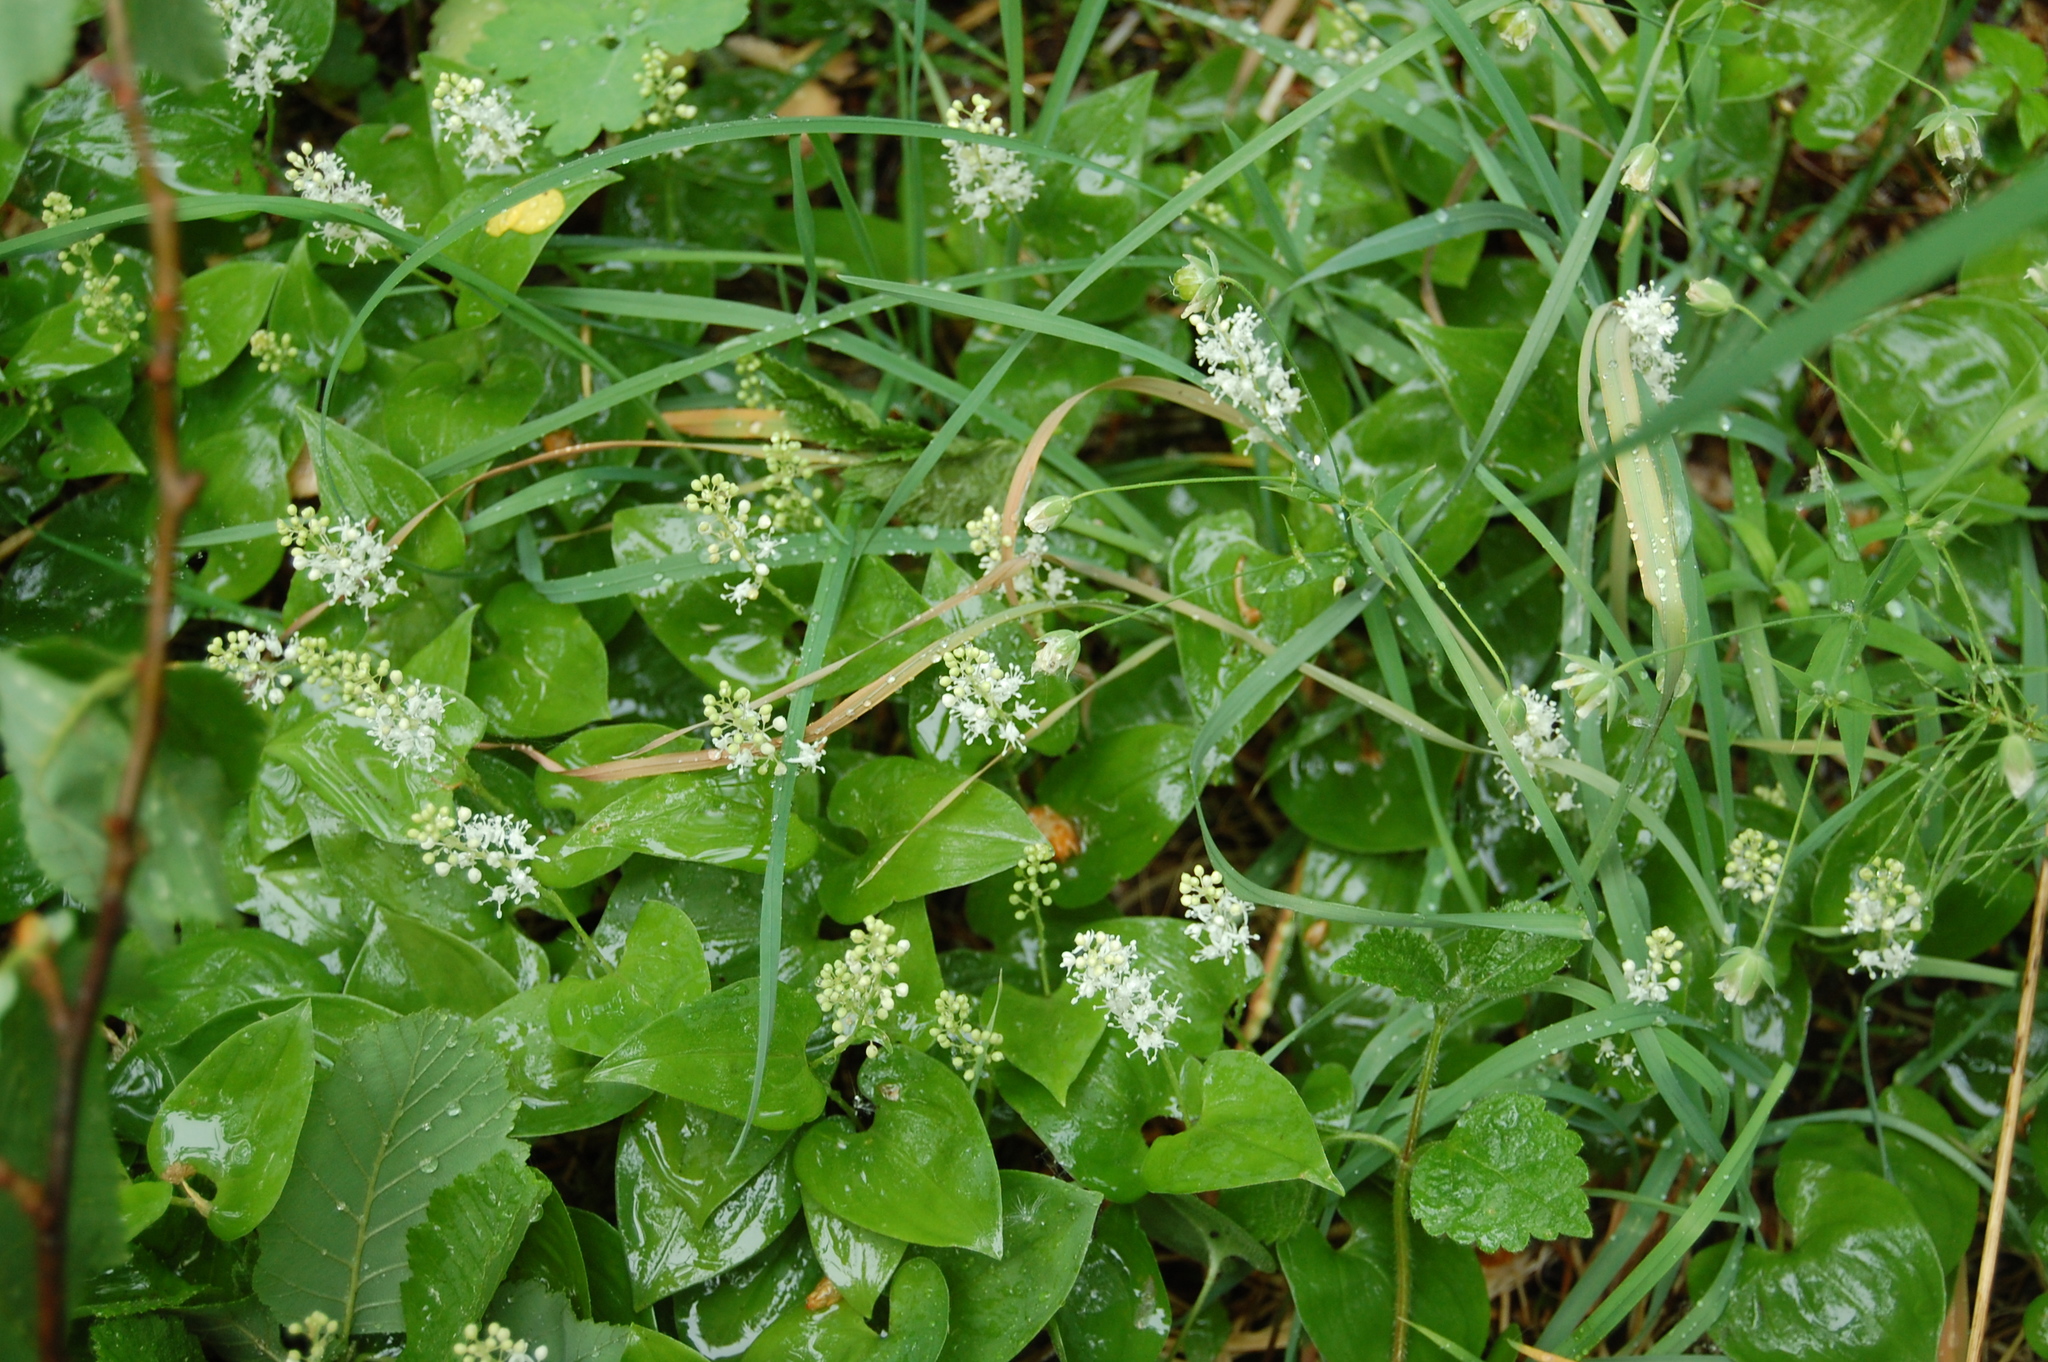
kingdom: Plantae
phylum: Tracheophyta
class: Liliopsida
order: Asparagales
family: Asparagaceae
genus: Maianthemum
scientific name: Maianthemum bifolium
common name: May lily
